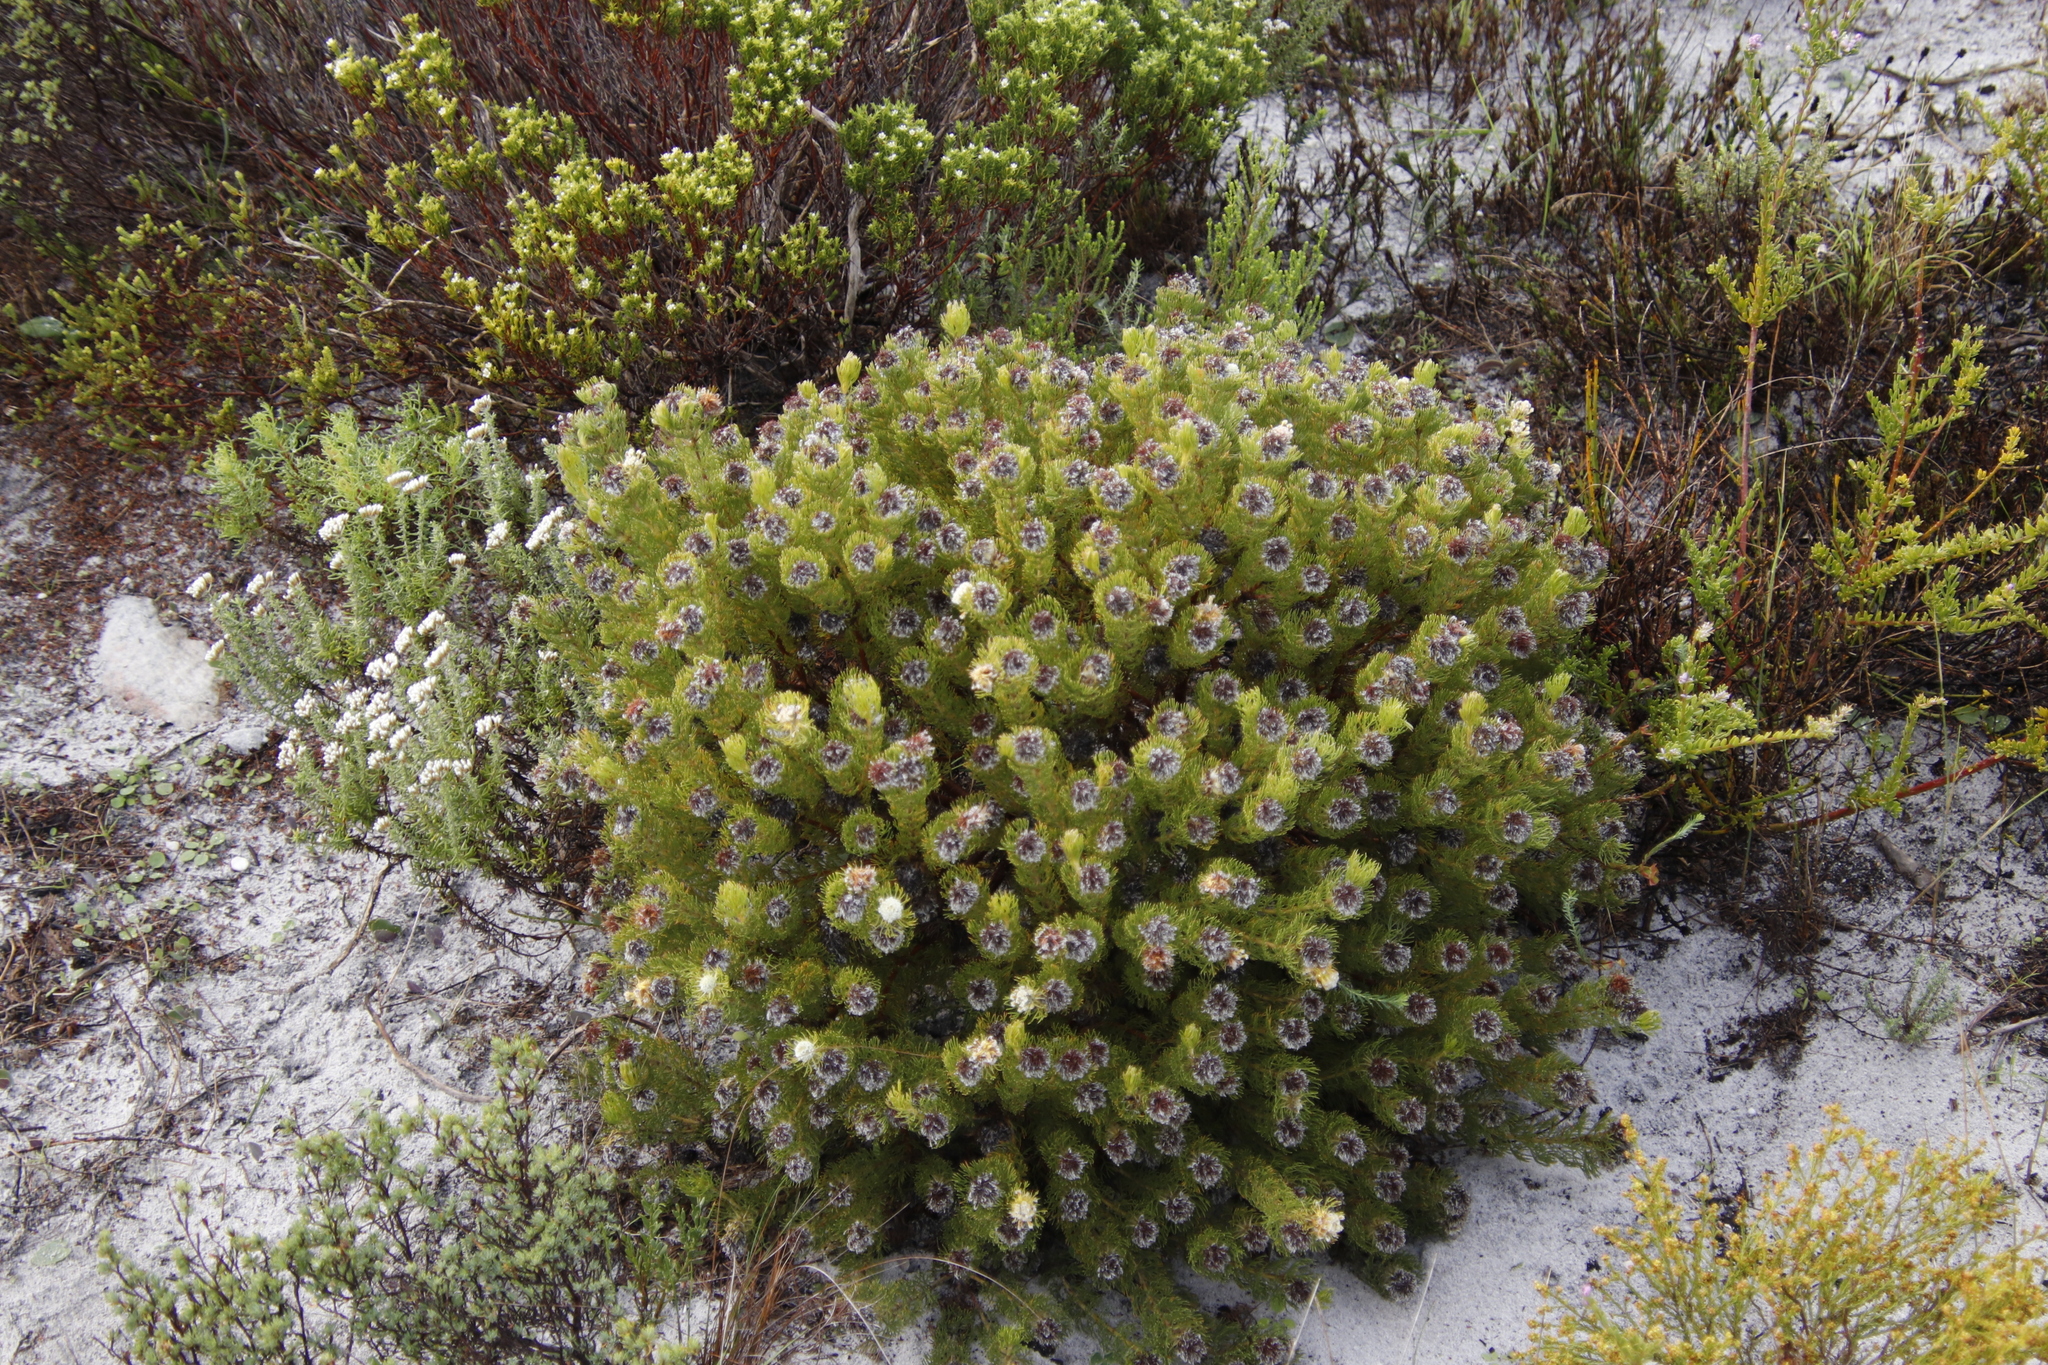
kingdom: Plantae
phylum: Tracheophyta
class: Magnoliopsida
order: Proteales
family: Proteaceae
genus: Serruria
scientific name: Serruria
